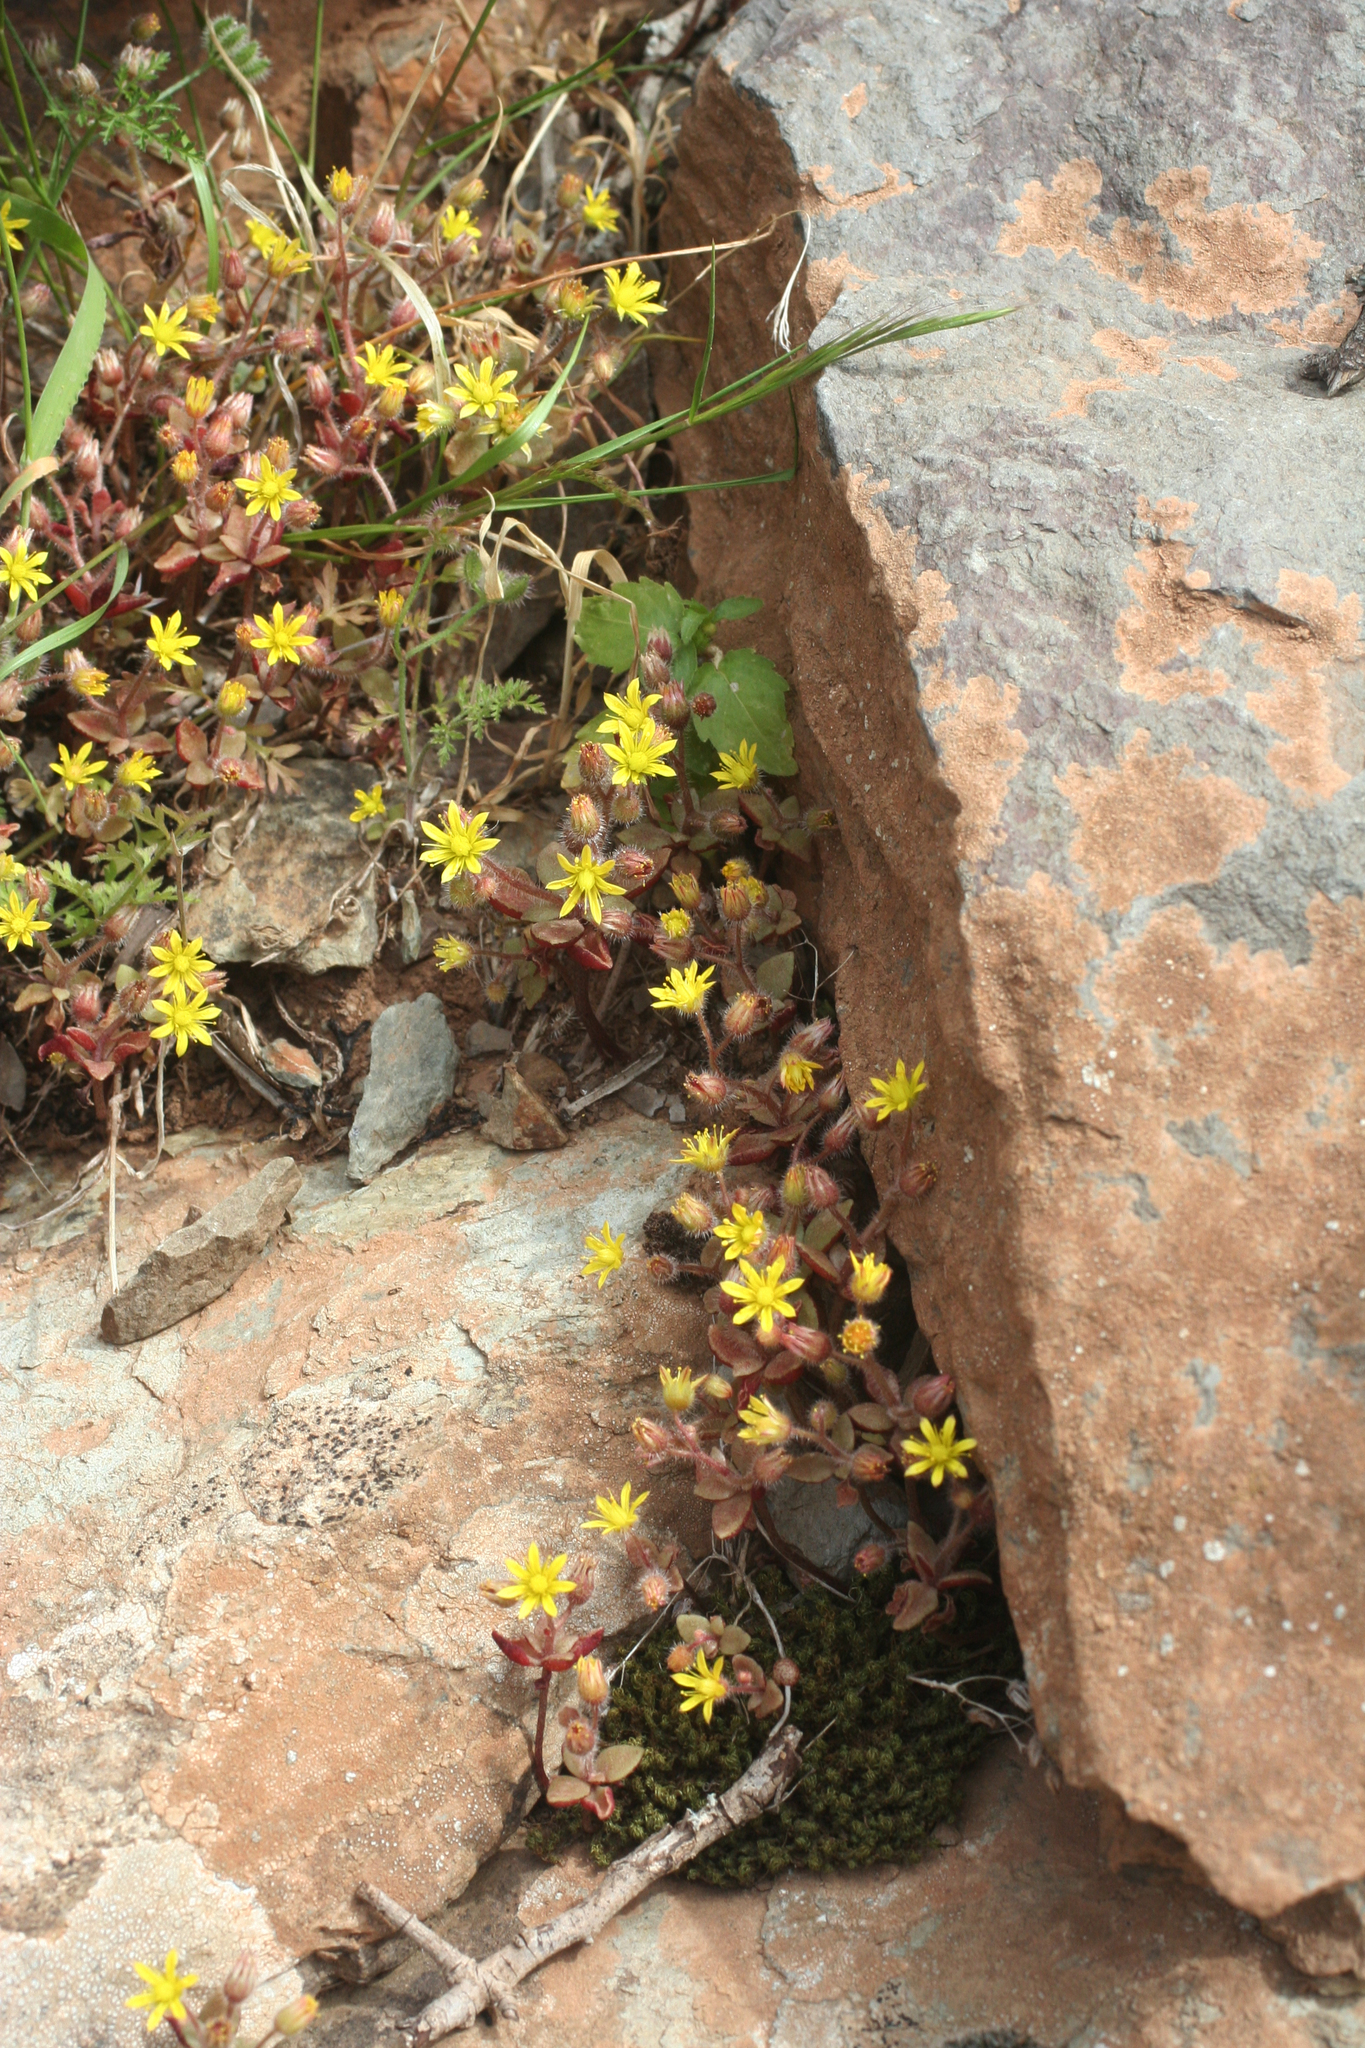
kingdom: Plantae
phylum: Tracheophyta
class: Magnoliopsida
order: Saxifragales
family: Crassulaceae
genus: Sedum
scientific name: Sedum modestum
